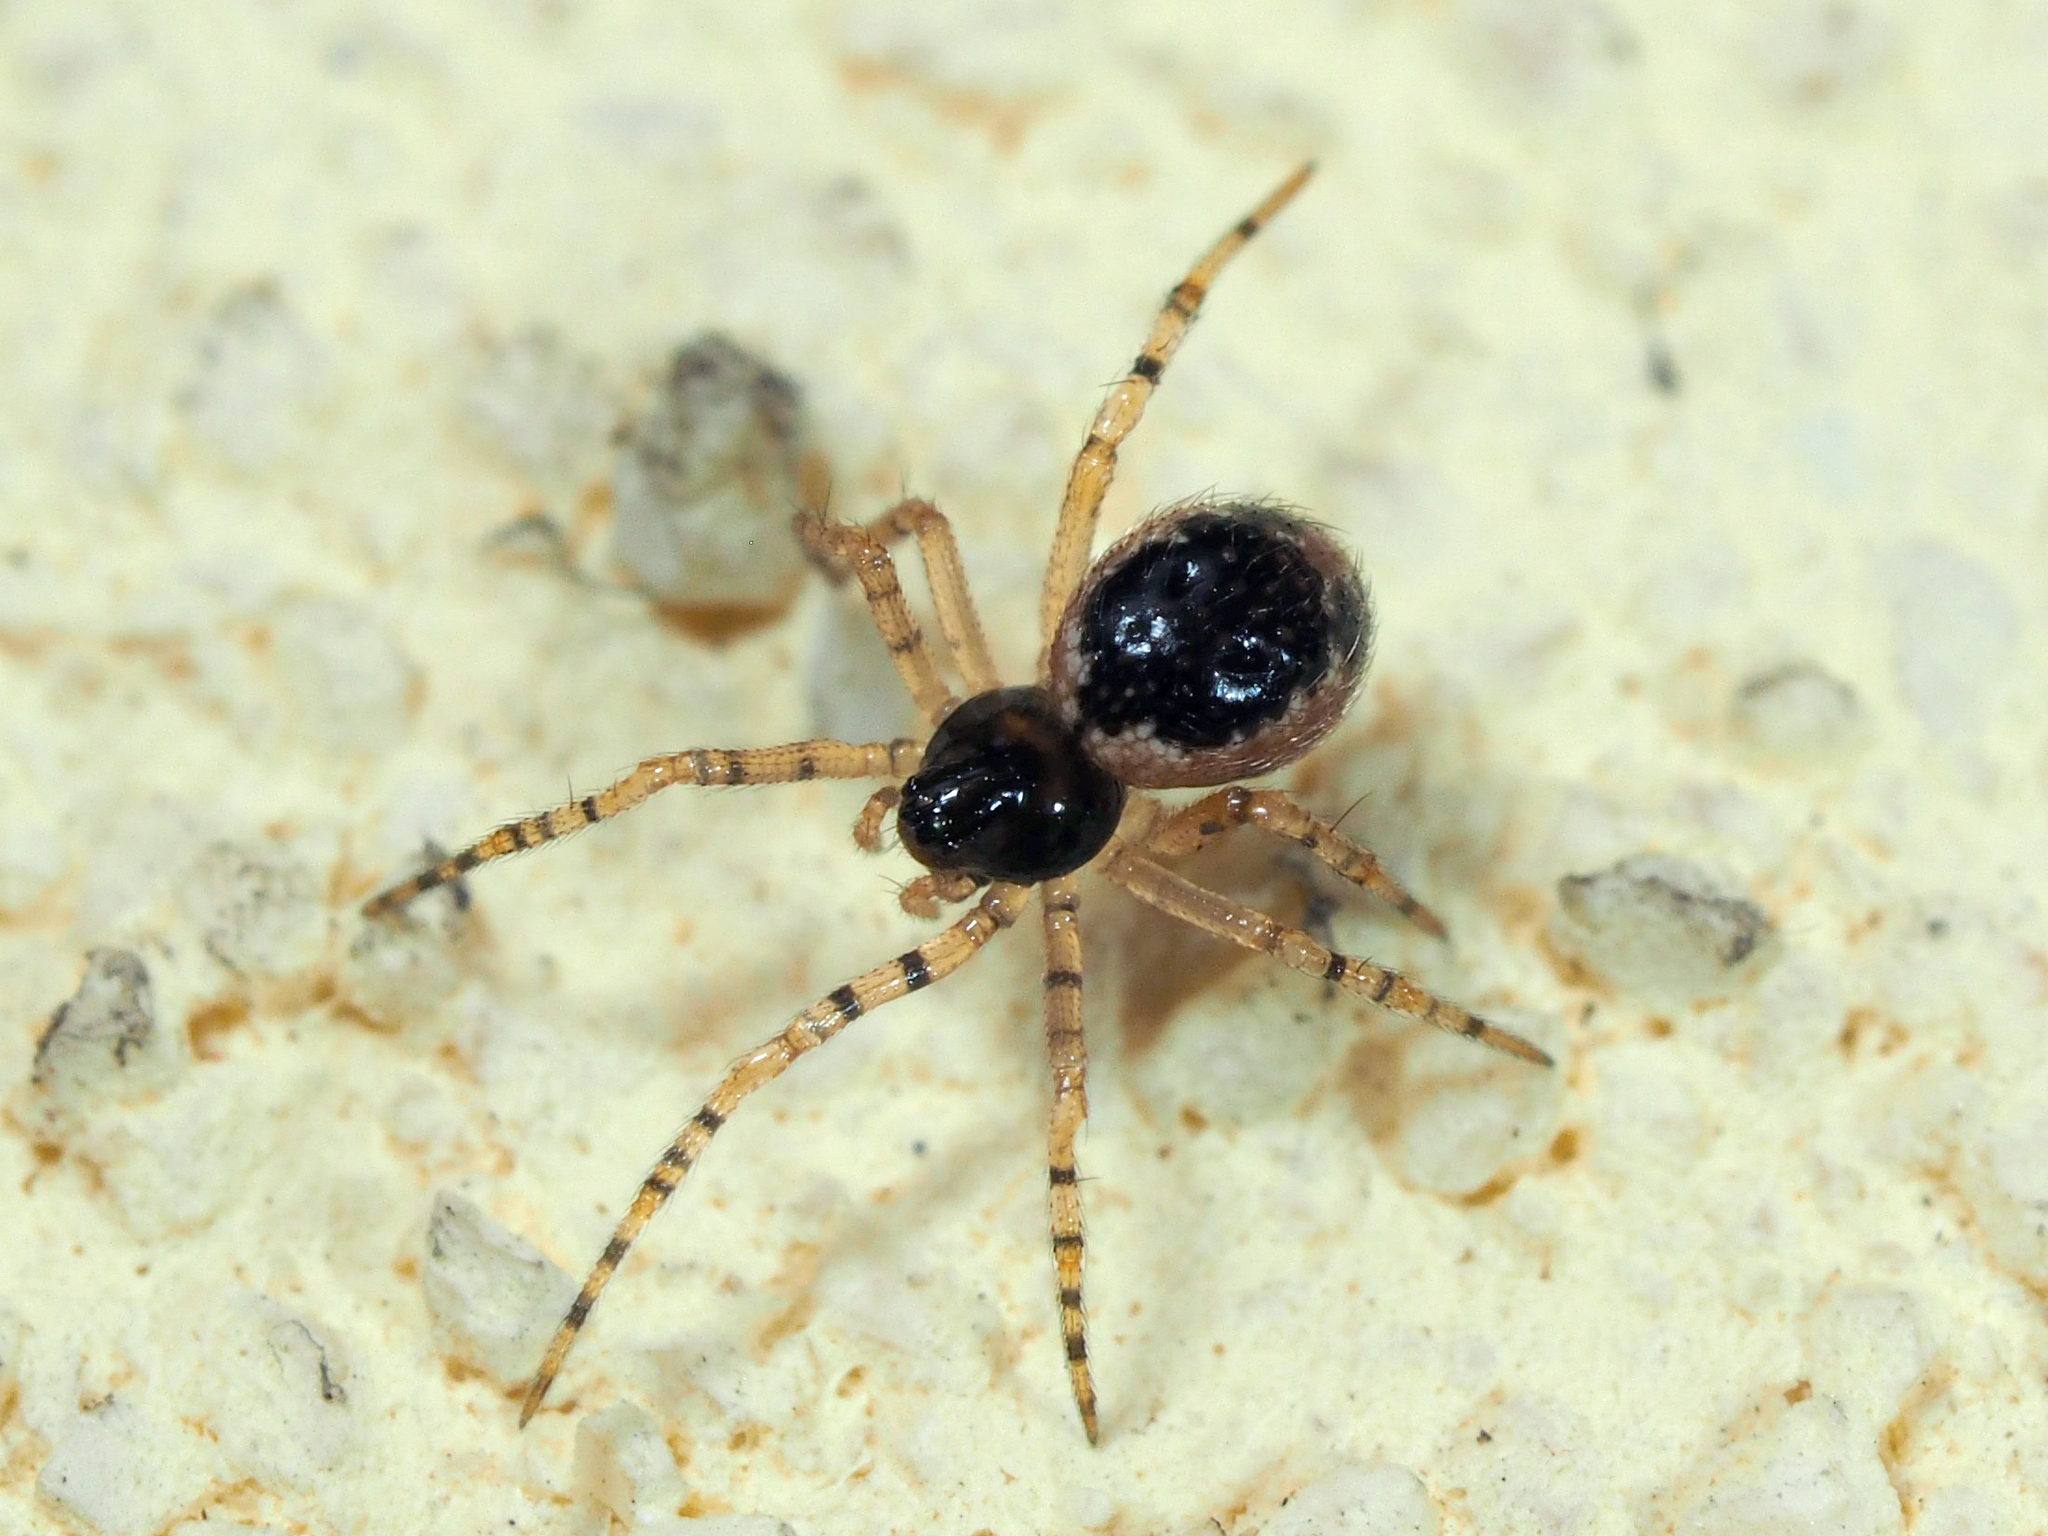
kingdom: Animalia
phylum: Arthropoda
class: Arachnida
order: Araneae
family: Theridiidae
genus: Sardinidion
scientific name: Sardinidion blackwalli
